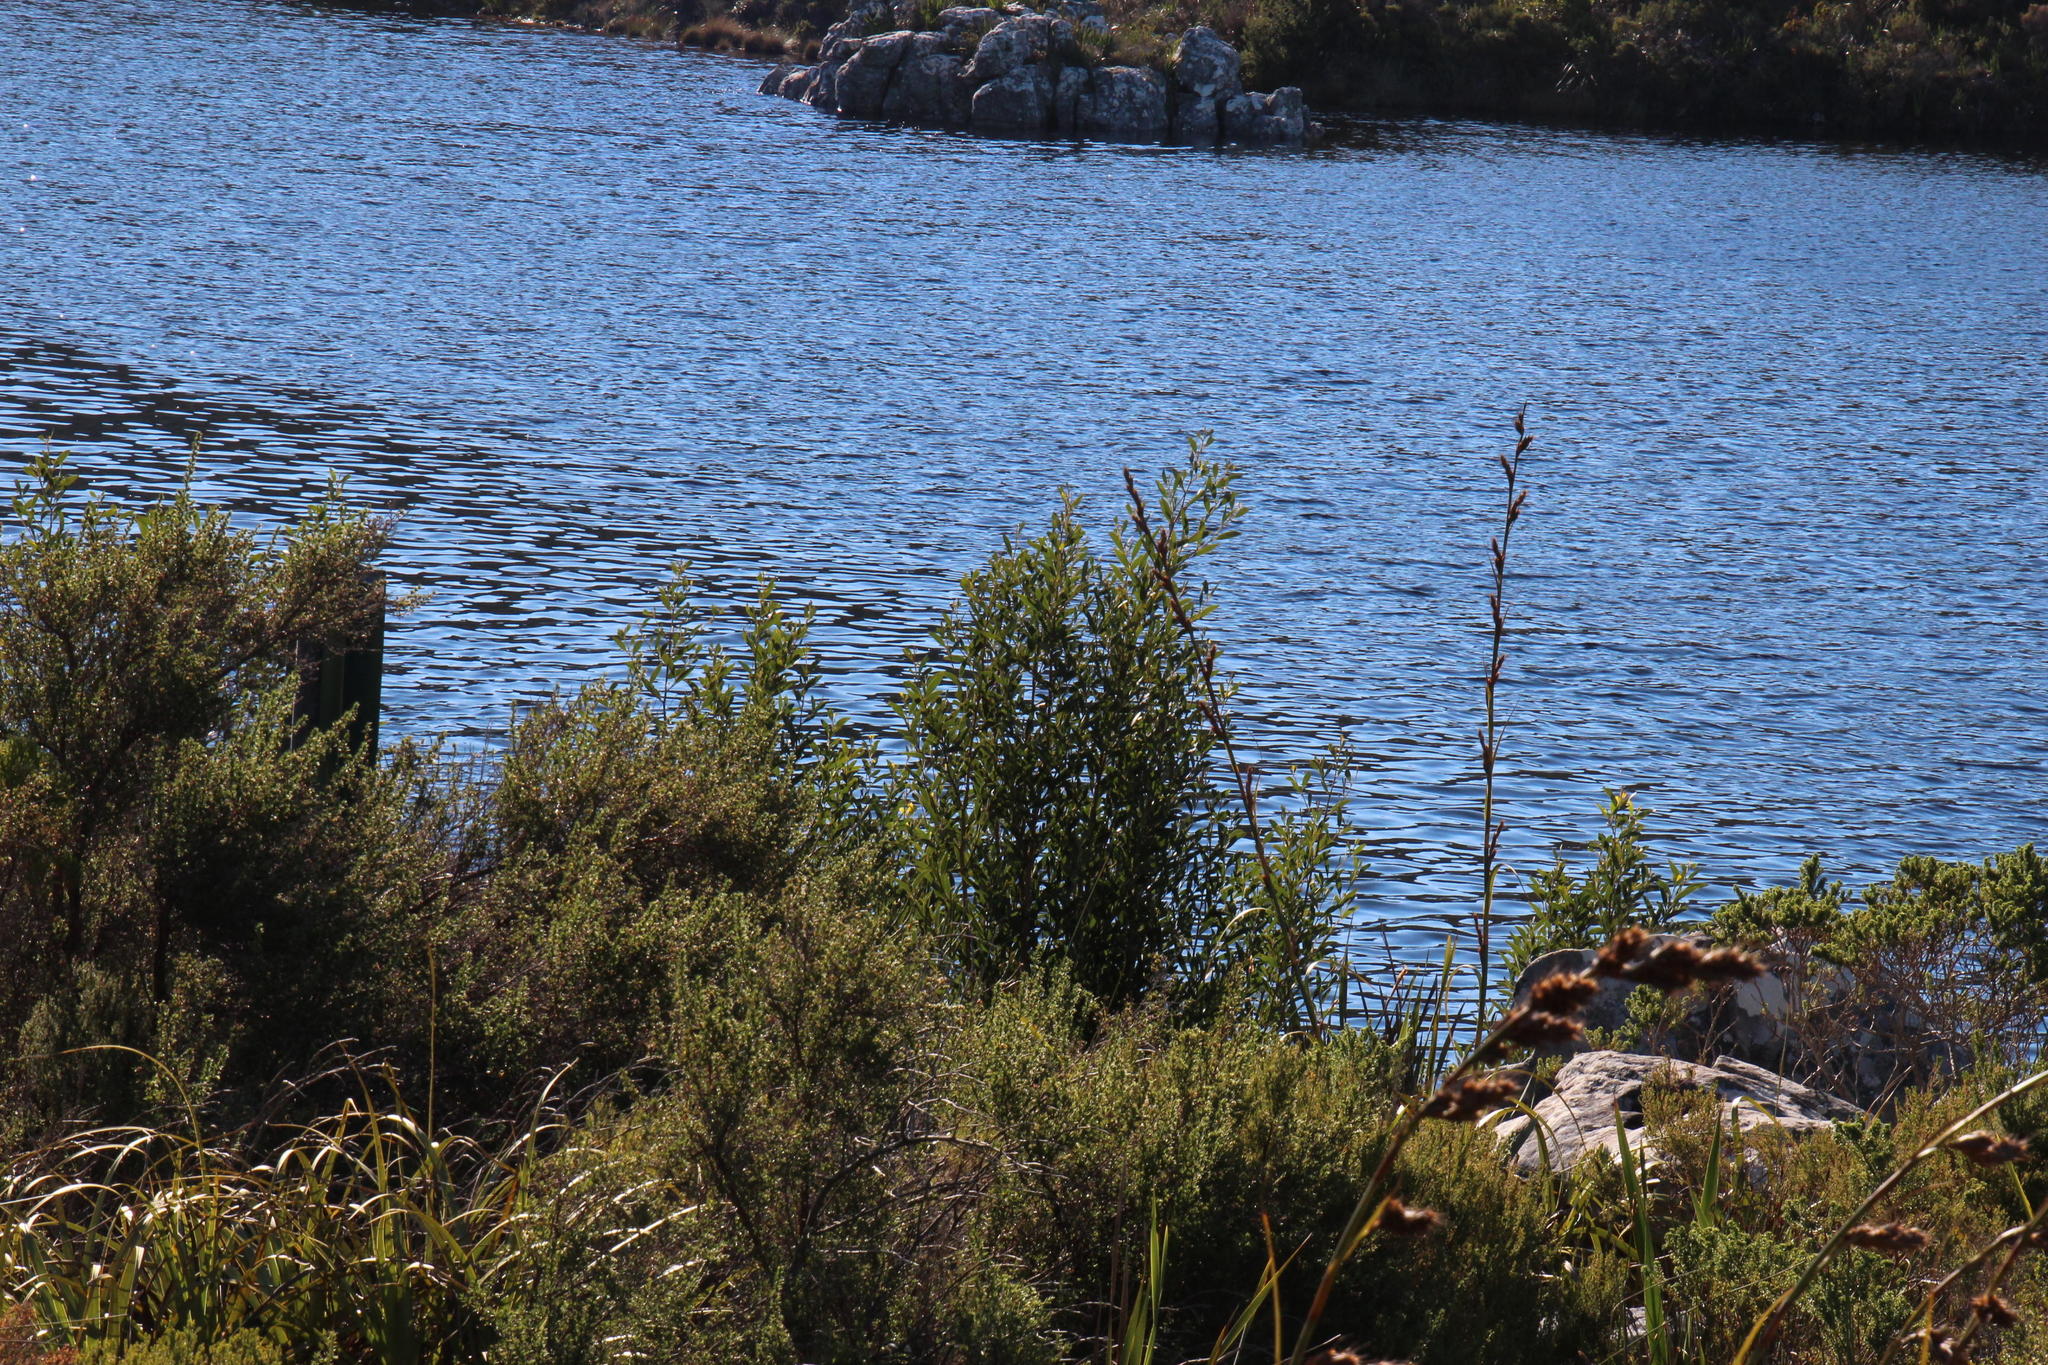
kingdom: Plantae
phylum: Tracheophyta
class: Magnoliopsida
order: Fabales
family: Fabaceae
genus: Acacia
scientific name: Acacia melanoxylon
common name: Blackwood
